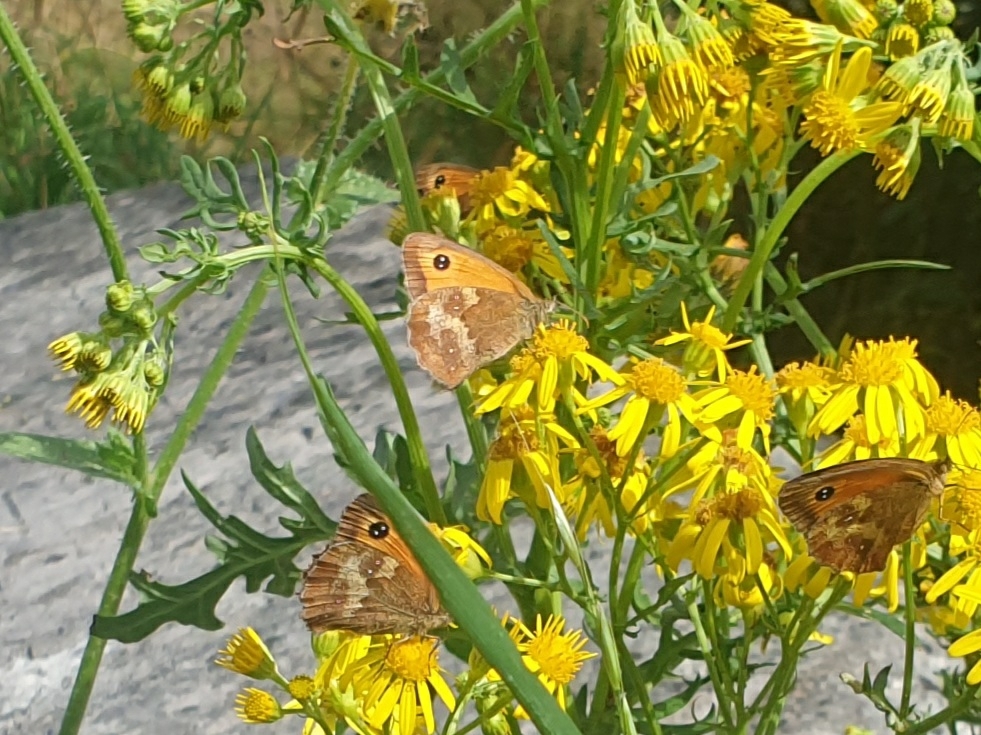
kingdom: Animalia
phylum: Arthropoda
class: Insecta
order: Lepidoptera
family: Nymphalidae
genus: Pyronia
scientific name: Pyronia tithonus
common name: Gatekeeper
